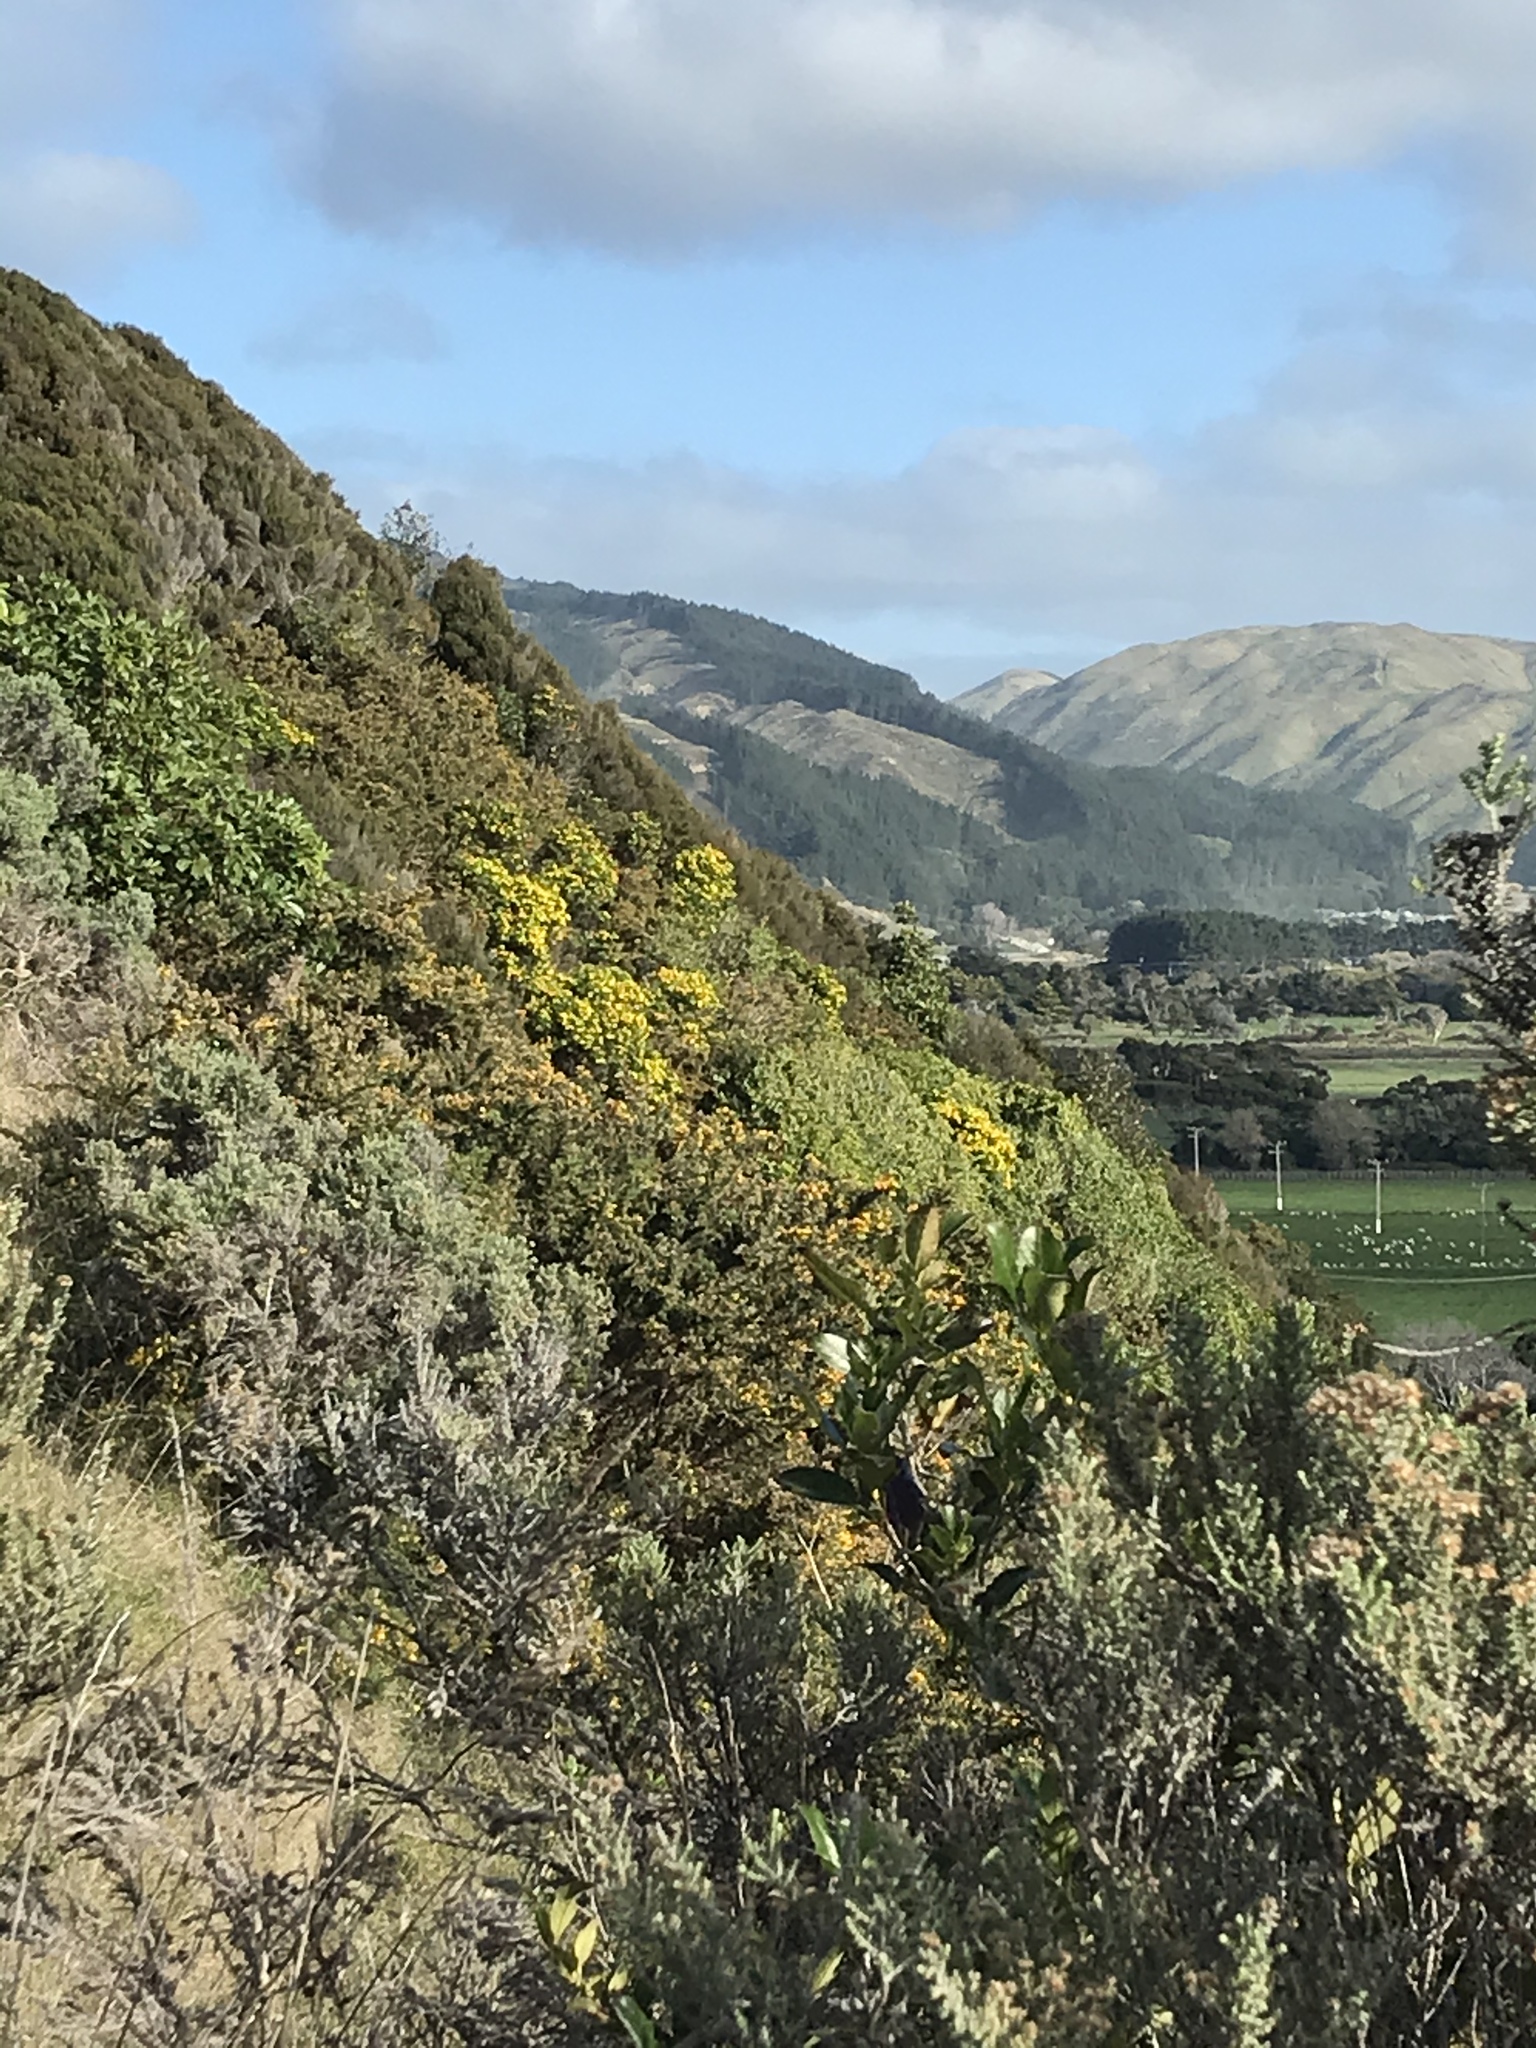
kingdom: Plantae
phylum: Tracheophyta
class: Magnoliopsida
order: Asterales
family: Asteraceae
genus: Osteospermum
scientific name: Osteospermum moniliferum
